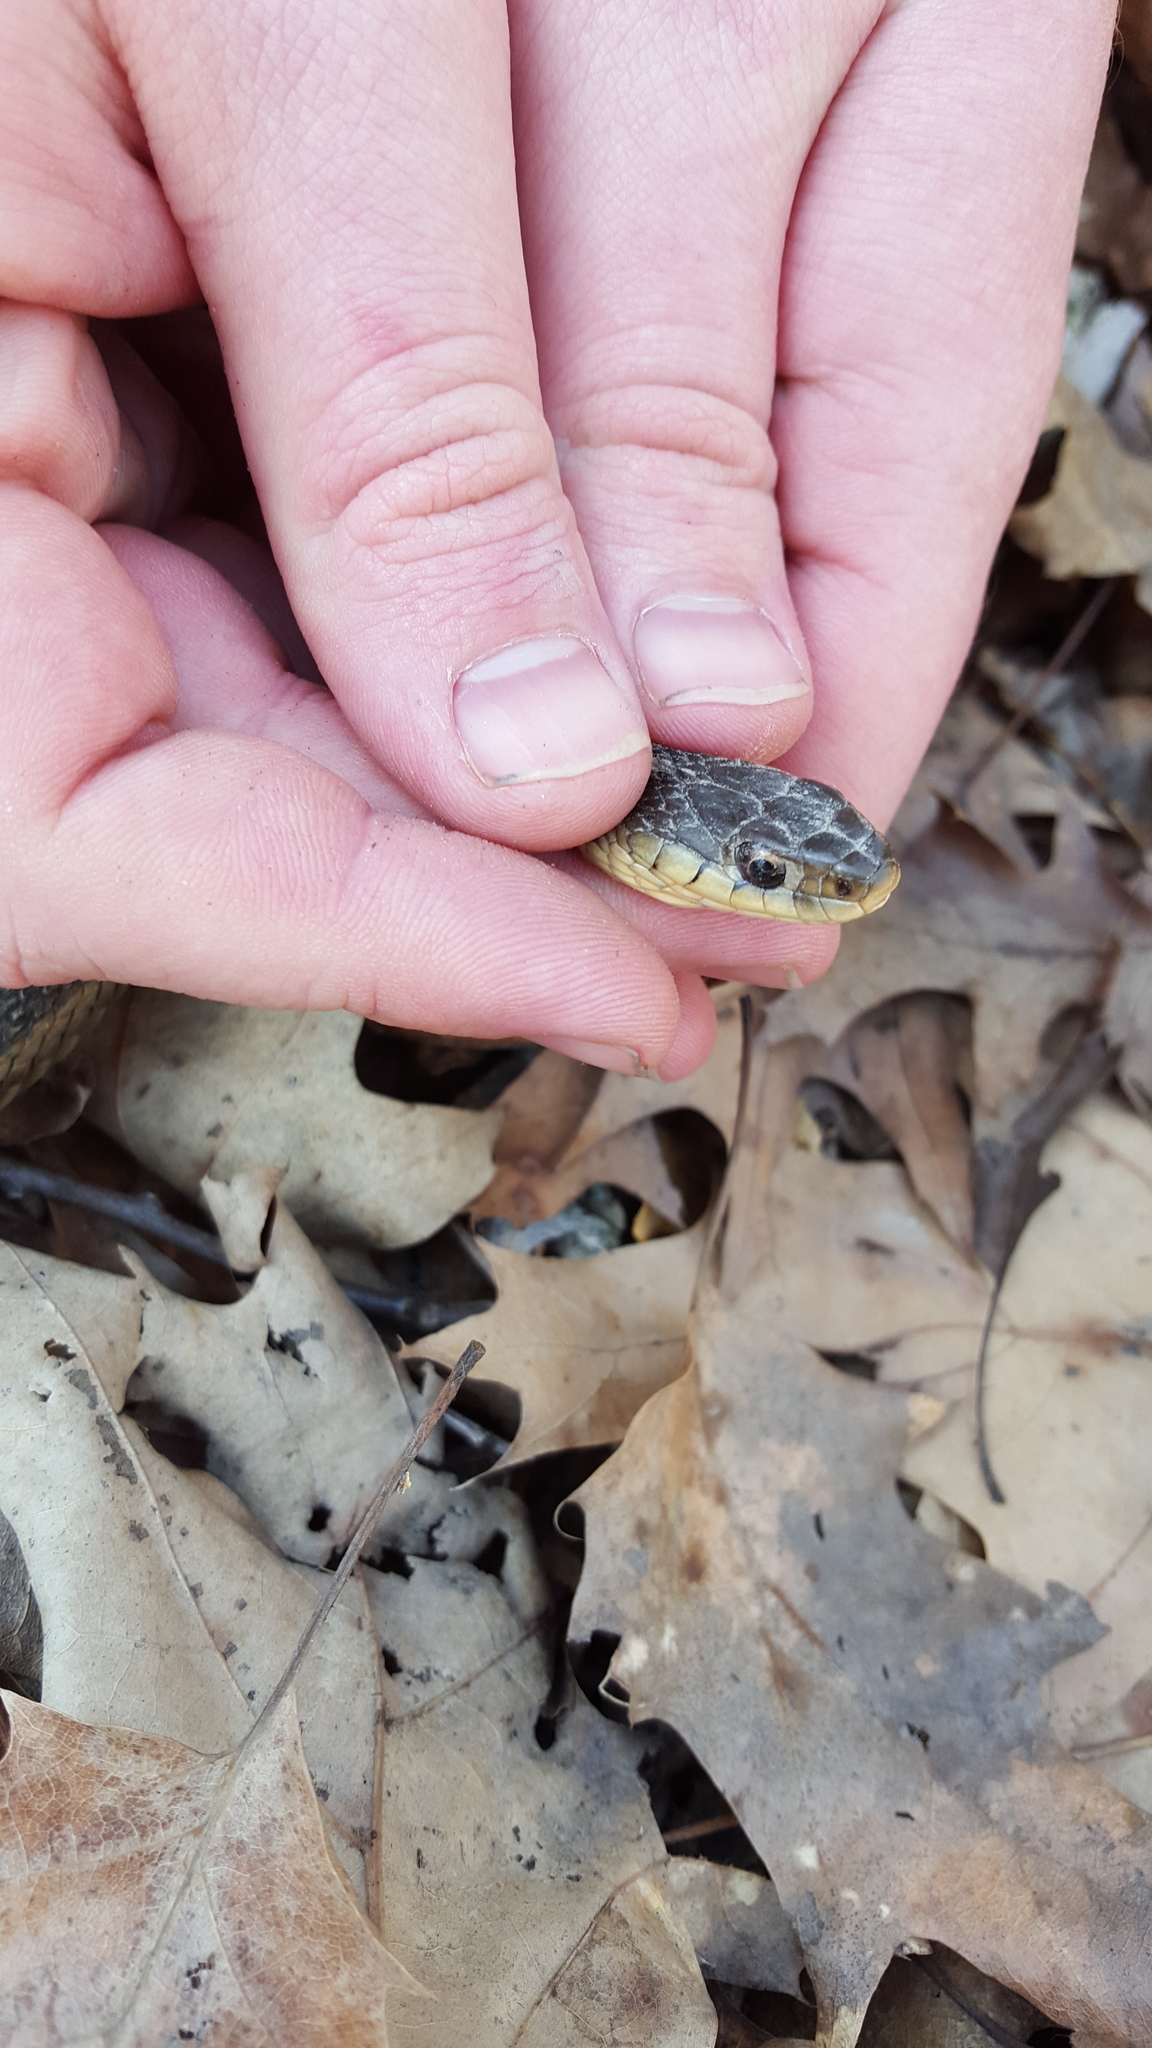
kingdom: Animalia
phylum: Chordata
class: Squamata
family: Colubridae
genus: Thamnophis
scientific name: Thamnophis sirtalis
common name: Common garter snake
